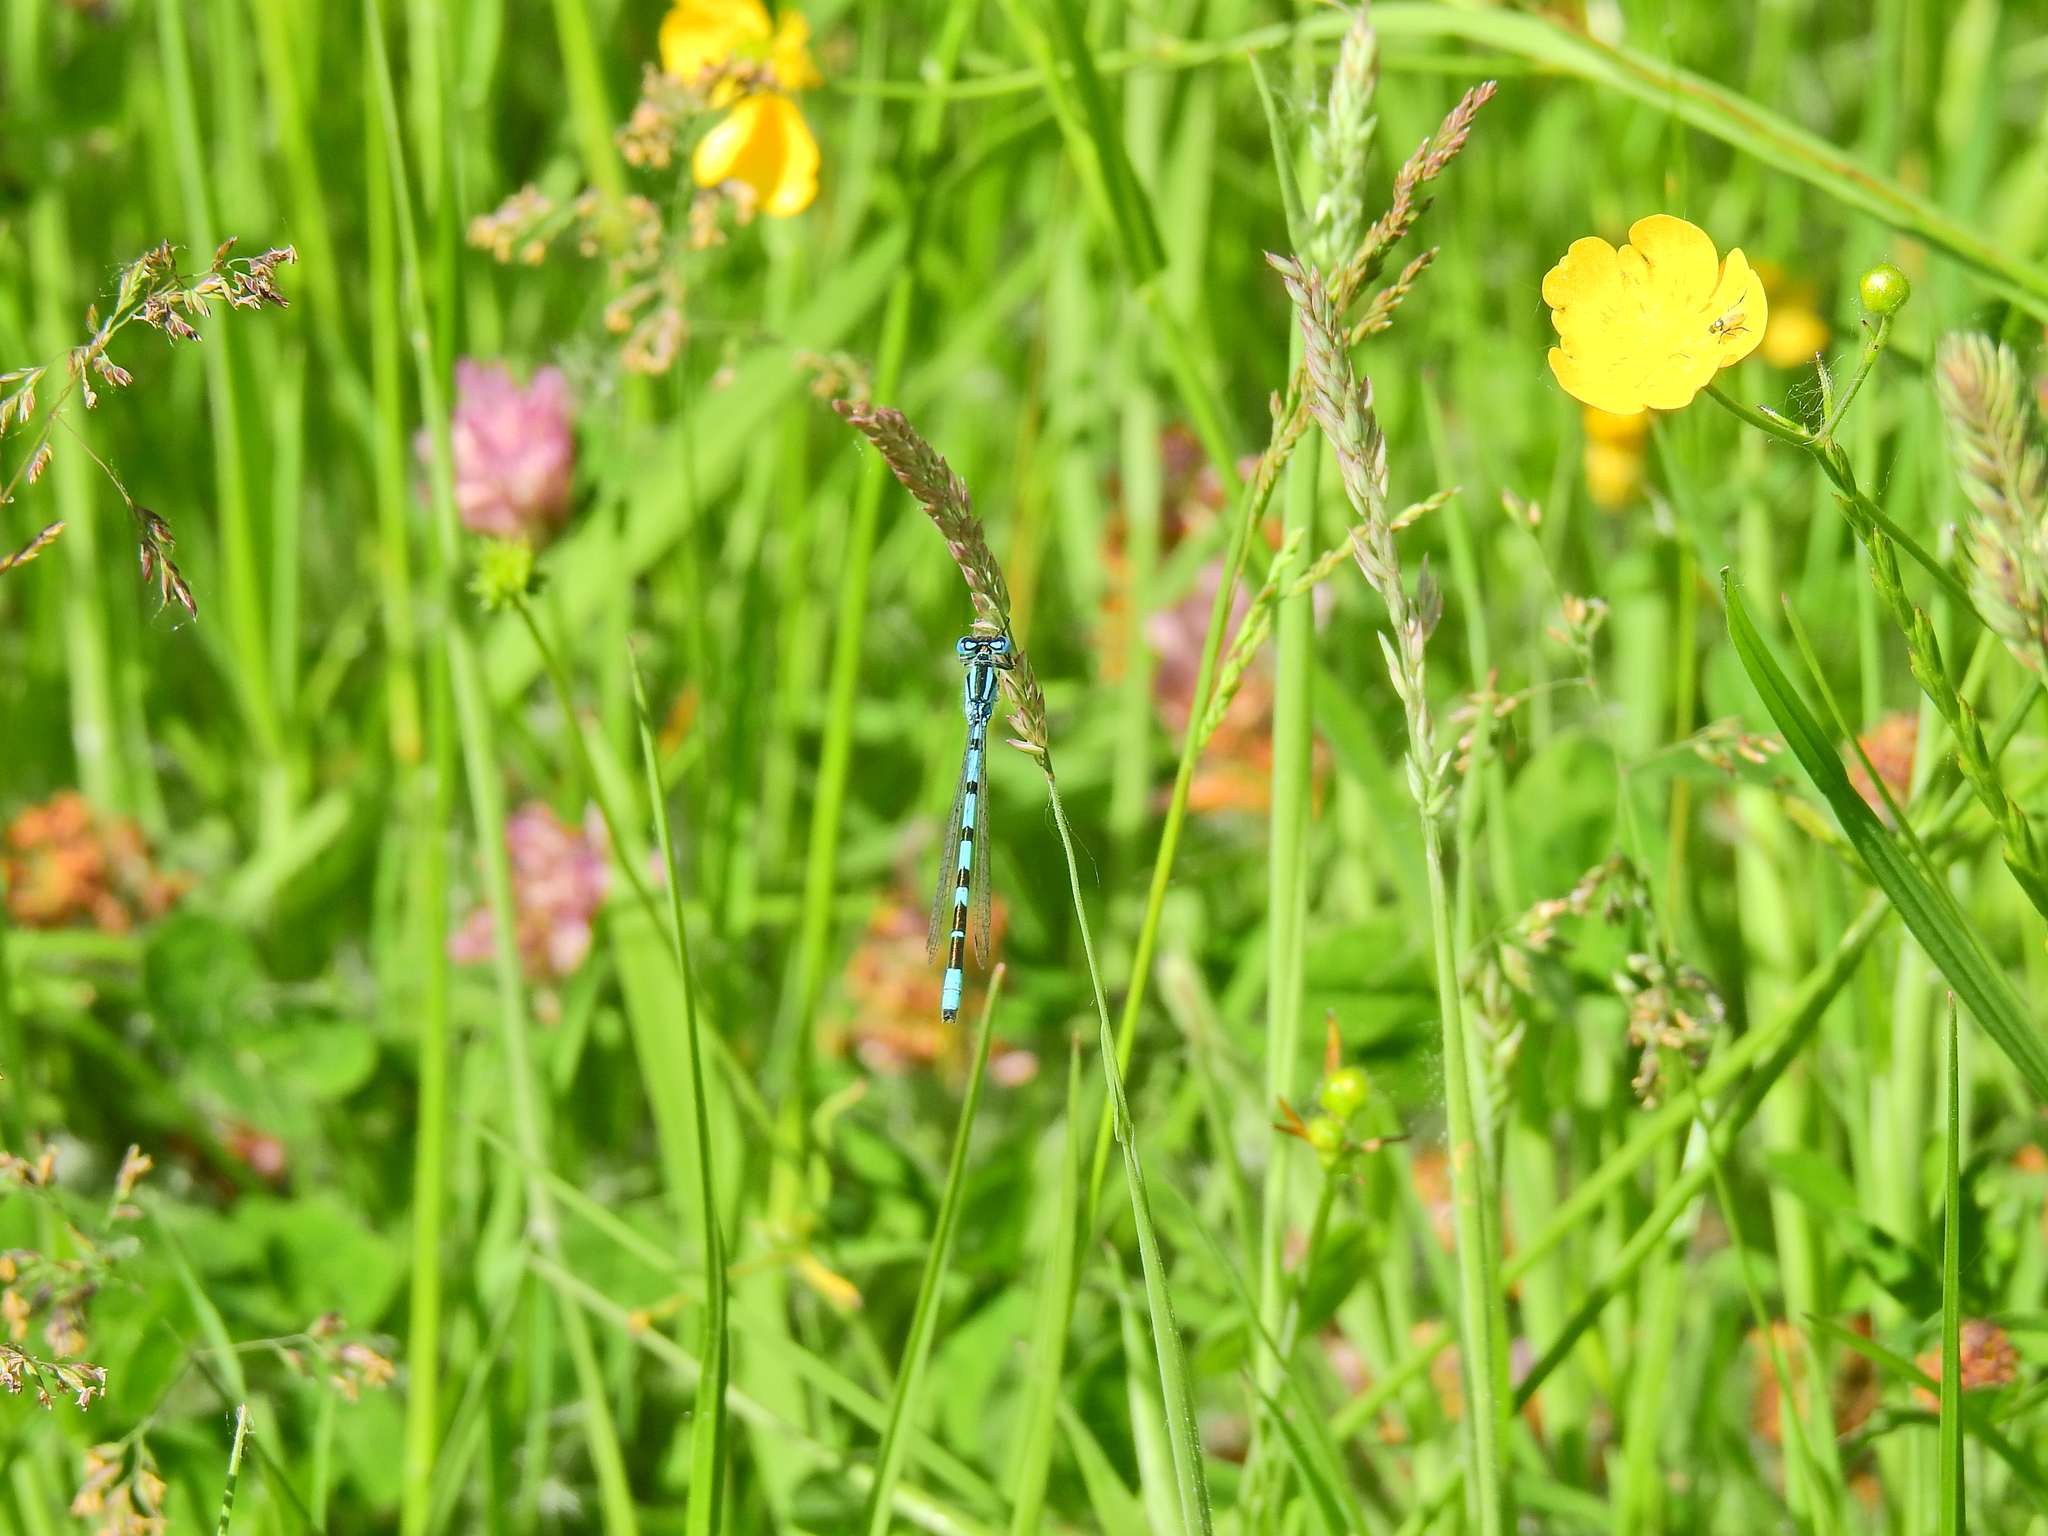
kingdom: Animalia
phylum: Arthropoda
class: Insecta
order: Odonata
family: Coenagrionidae
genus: Enallagma
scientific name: Enallagma cyathigerum
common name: Common blue damselfly
